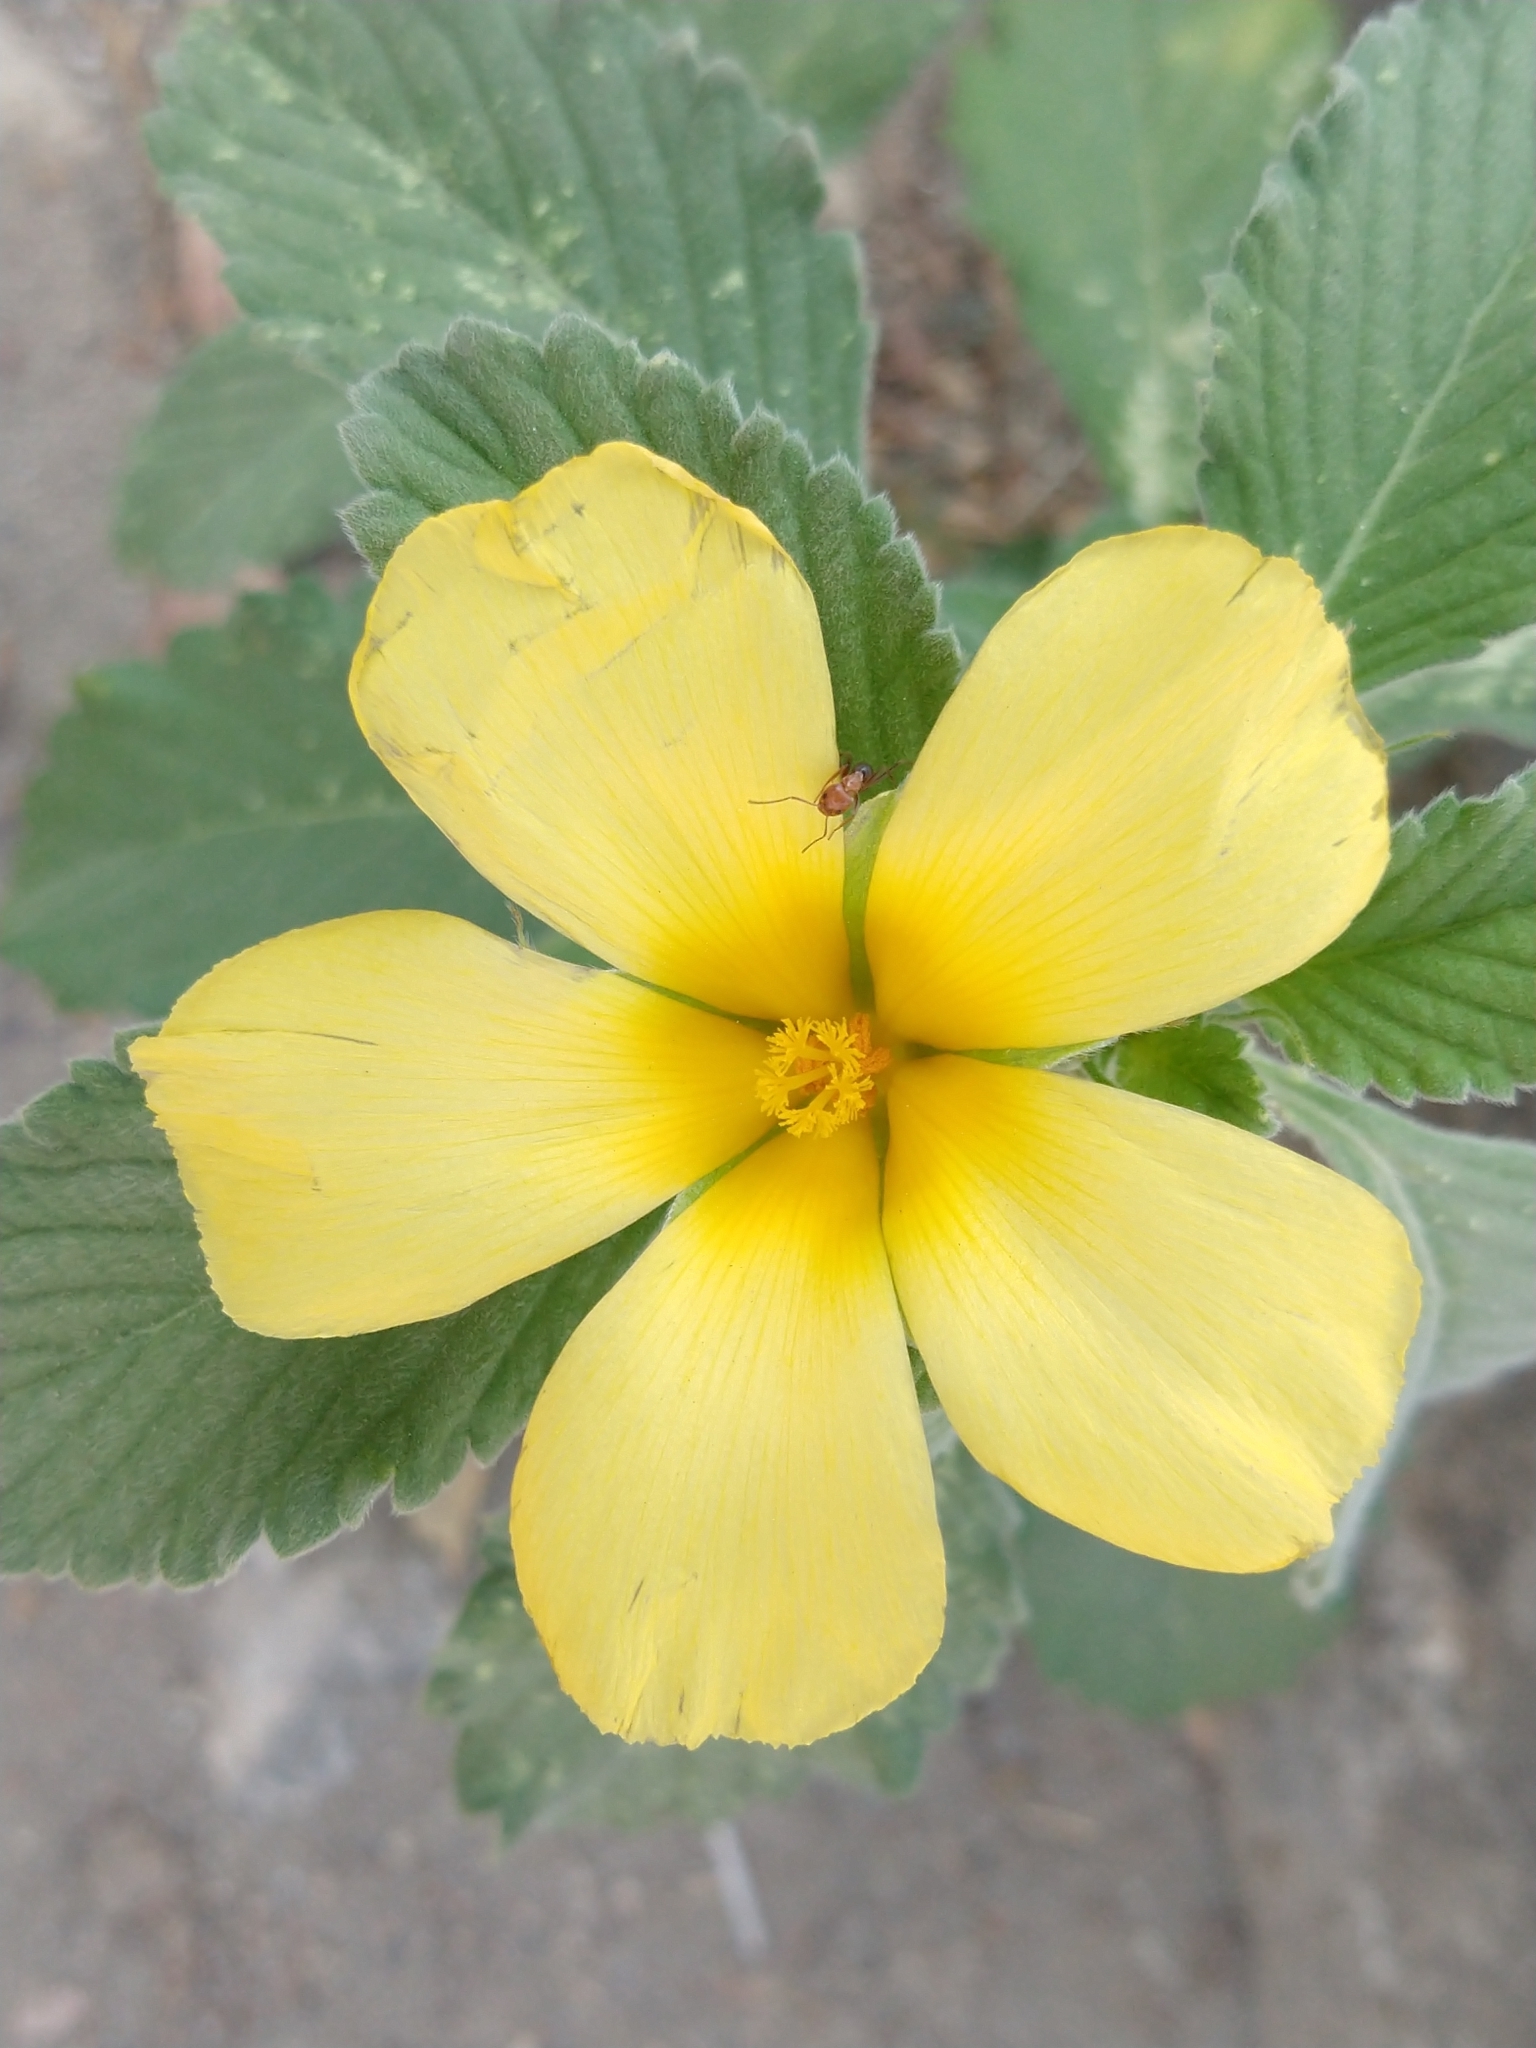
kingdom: Plantae
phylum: Tracheophyta
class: Magnoliopsida
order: Malpighiales
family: Turneraceae
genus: Turnera
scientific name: Turnera ulmifolia
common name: Ramgoat dashalong
